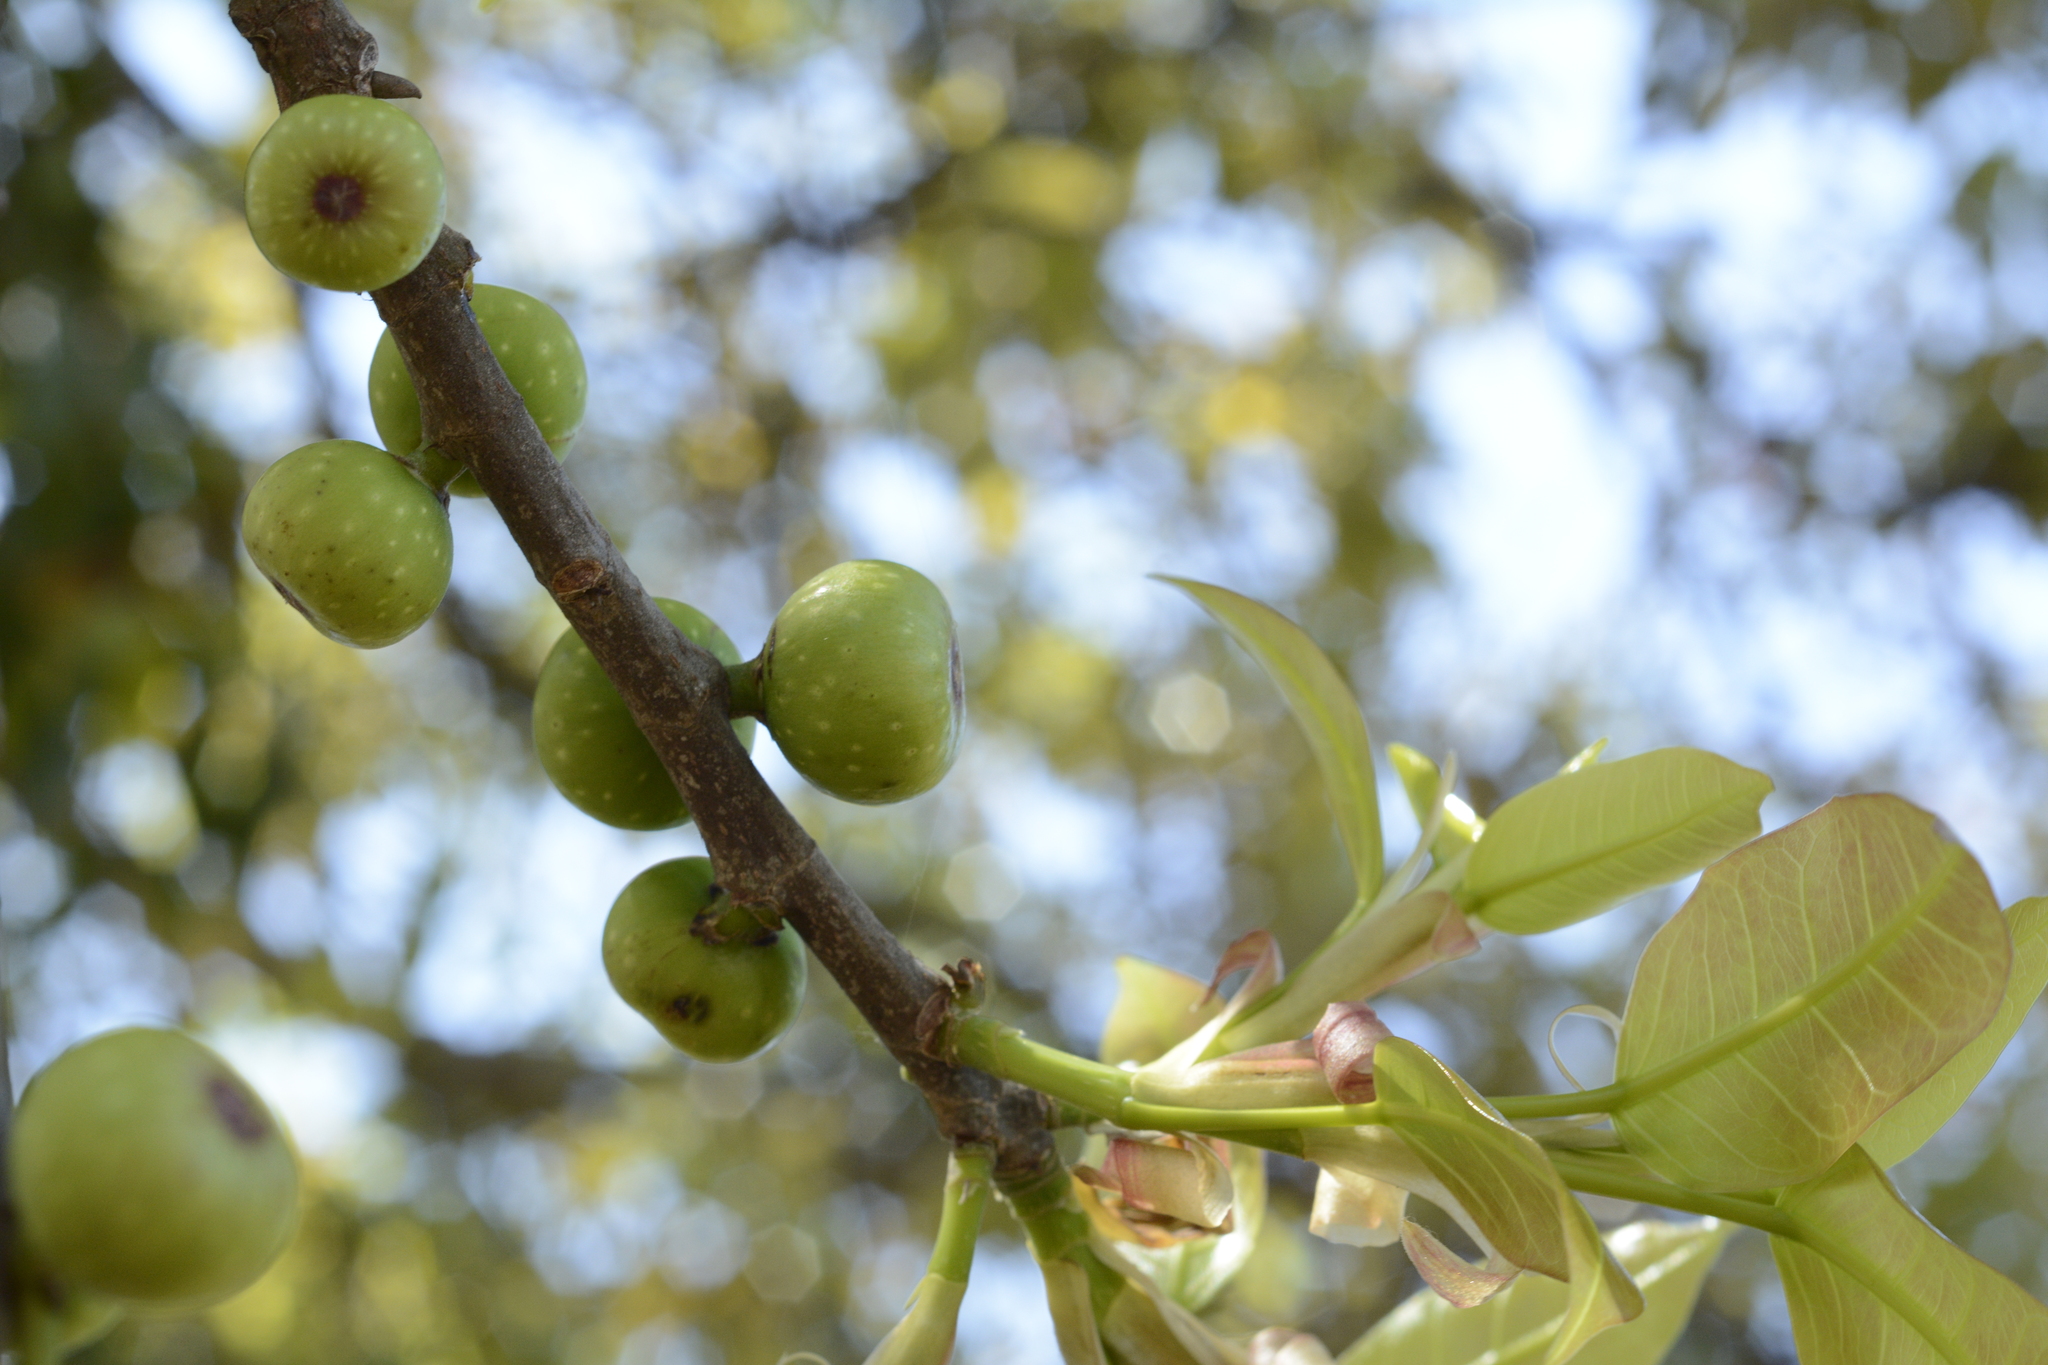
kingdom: Plantae
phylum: Tracheophyta
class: Magnoliopsida
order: Rosales
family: Moraceae
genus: Ficus
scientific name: Ficus virens
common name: Spotted fig
